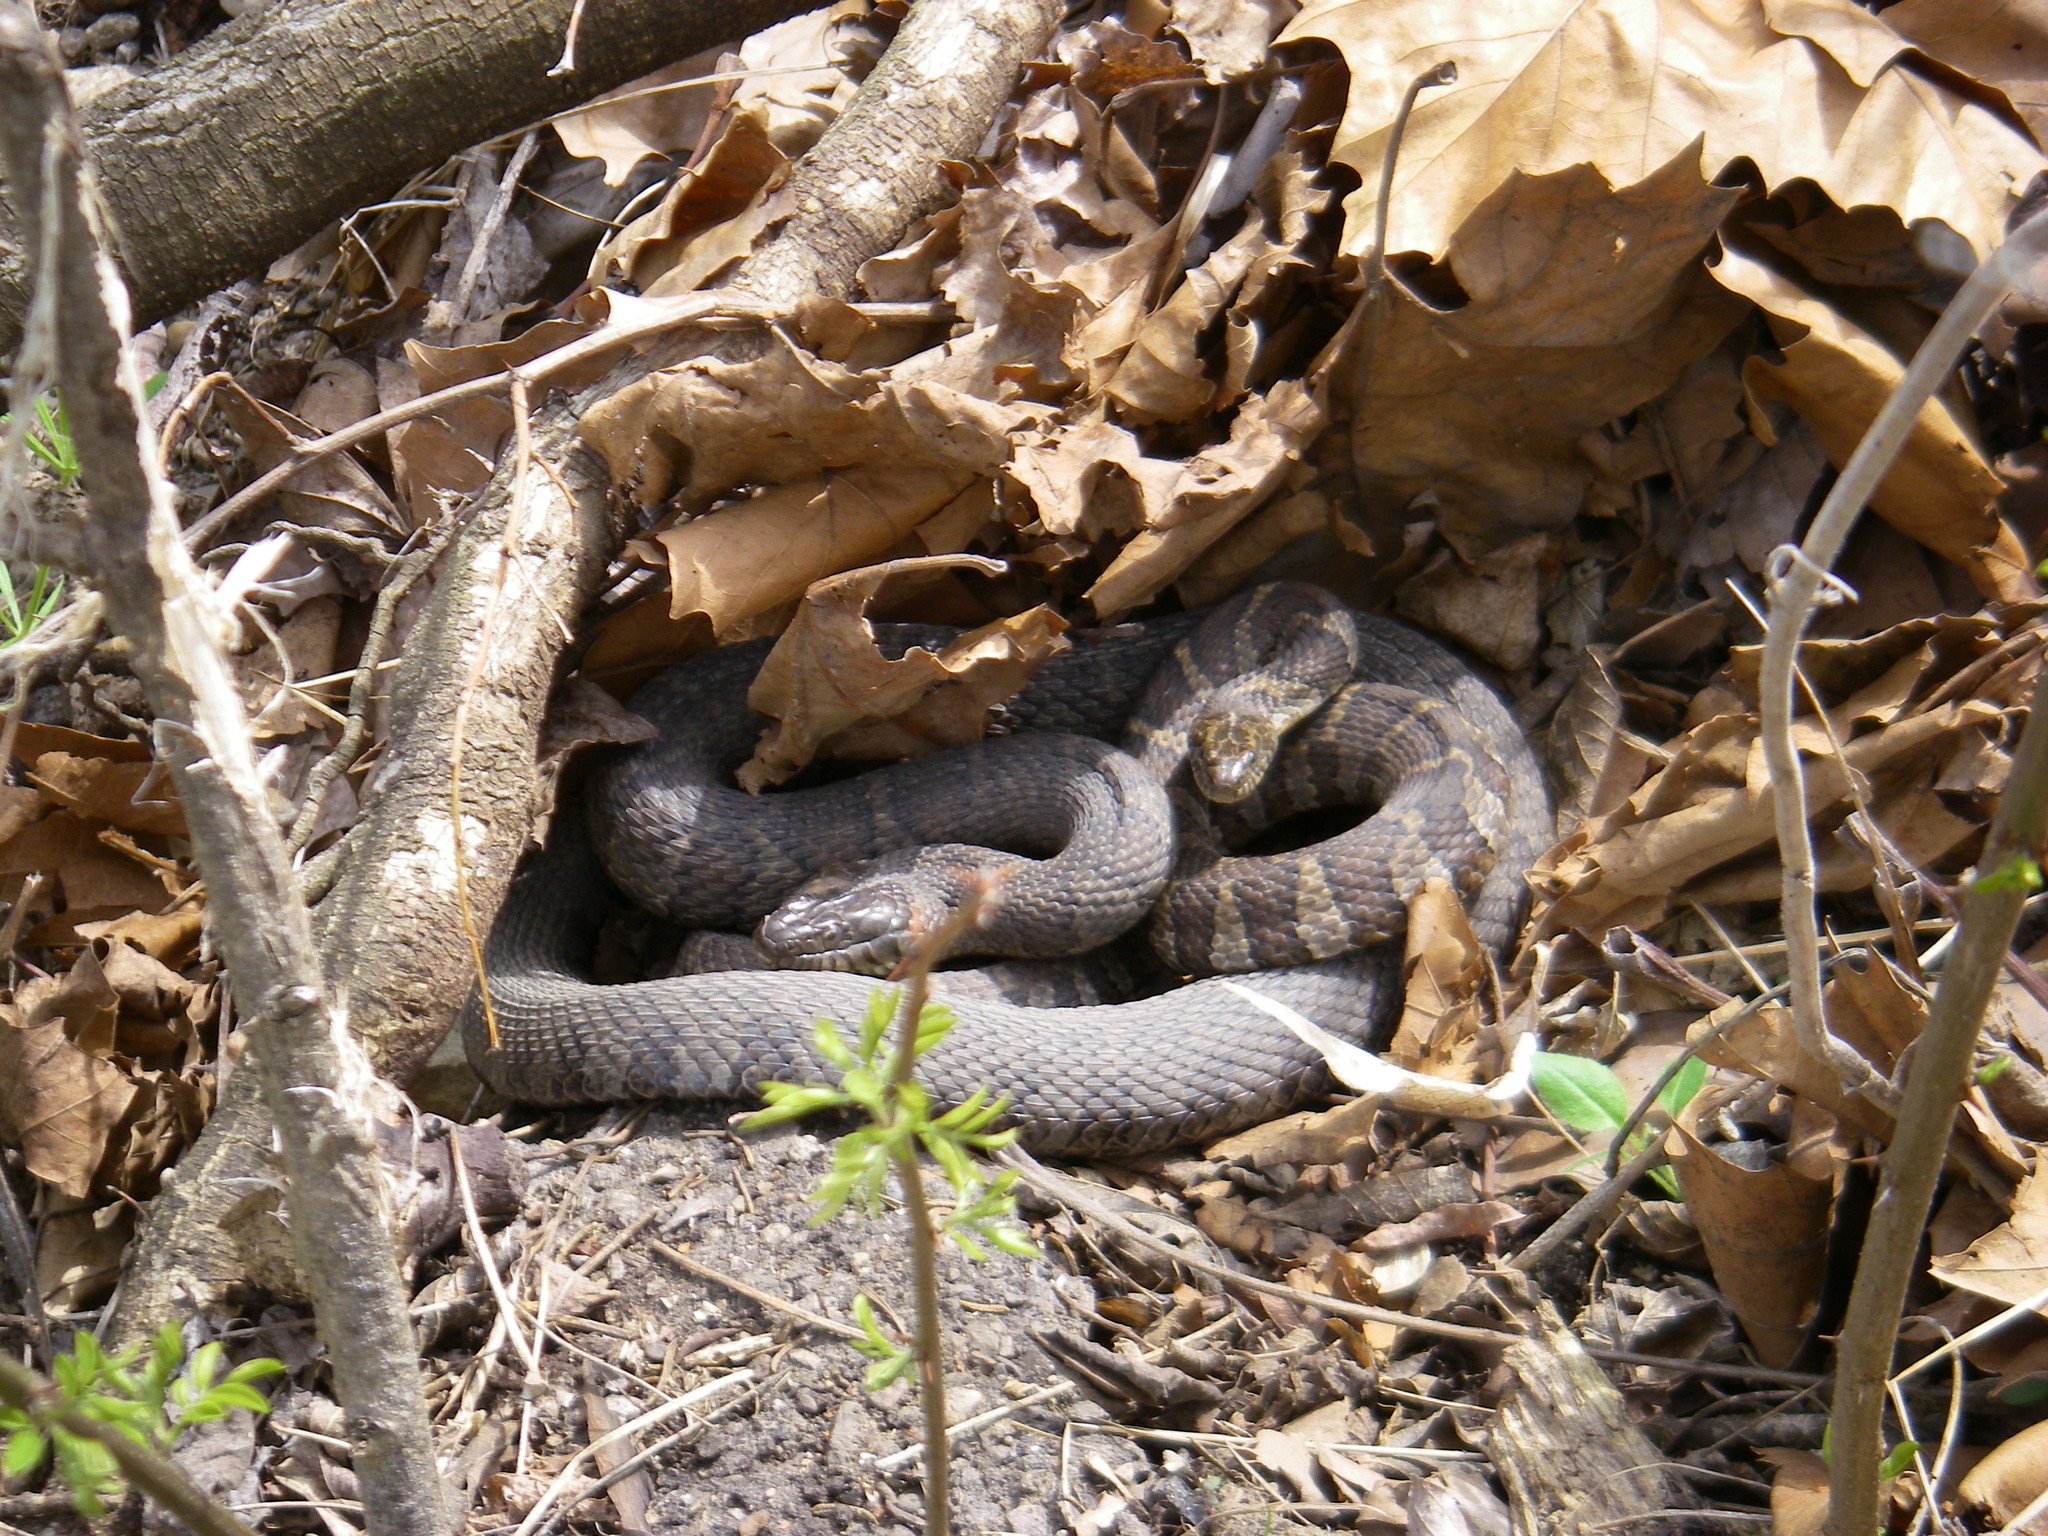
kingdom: Animalia
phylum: Chordata
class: Squamata
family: Colubridae
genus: Nerodia
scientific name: Nerodia sipedon
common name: Northern water snake
